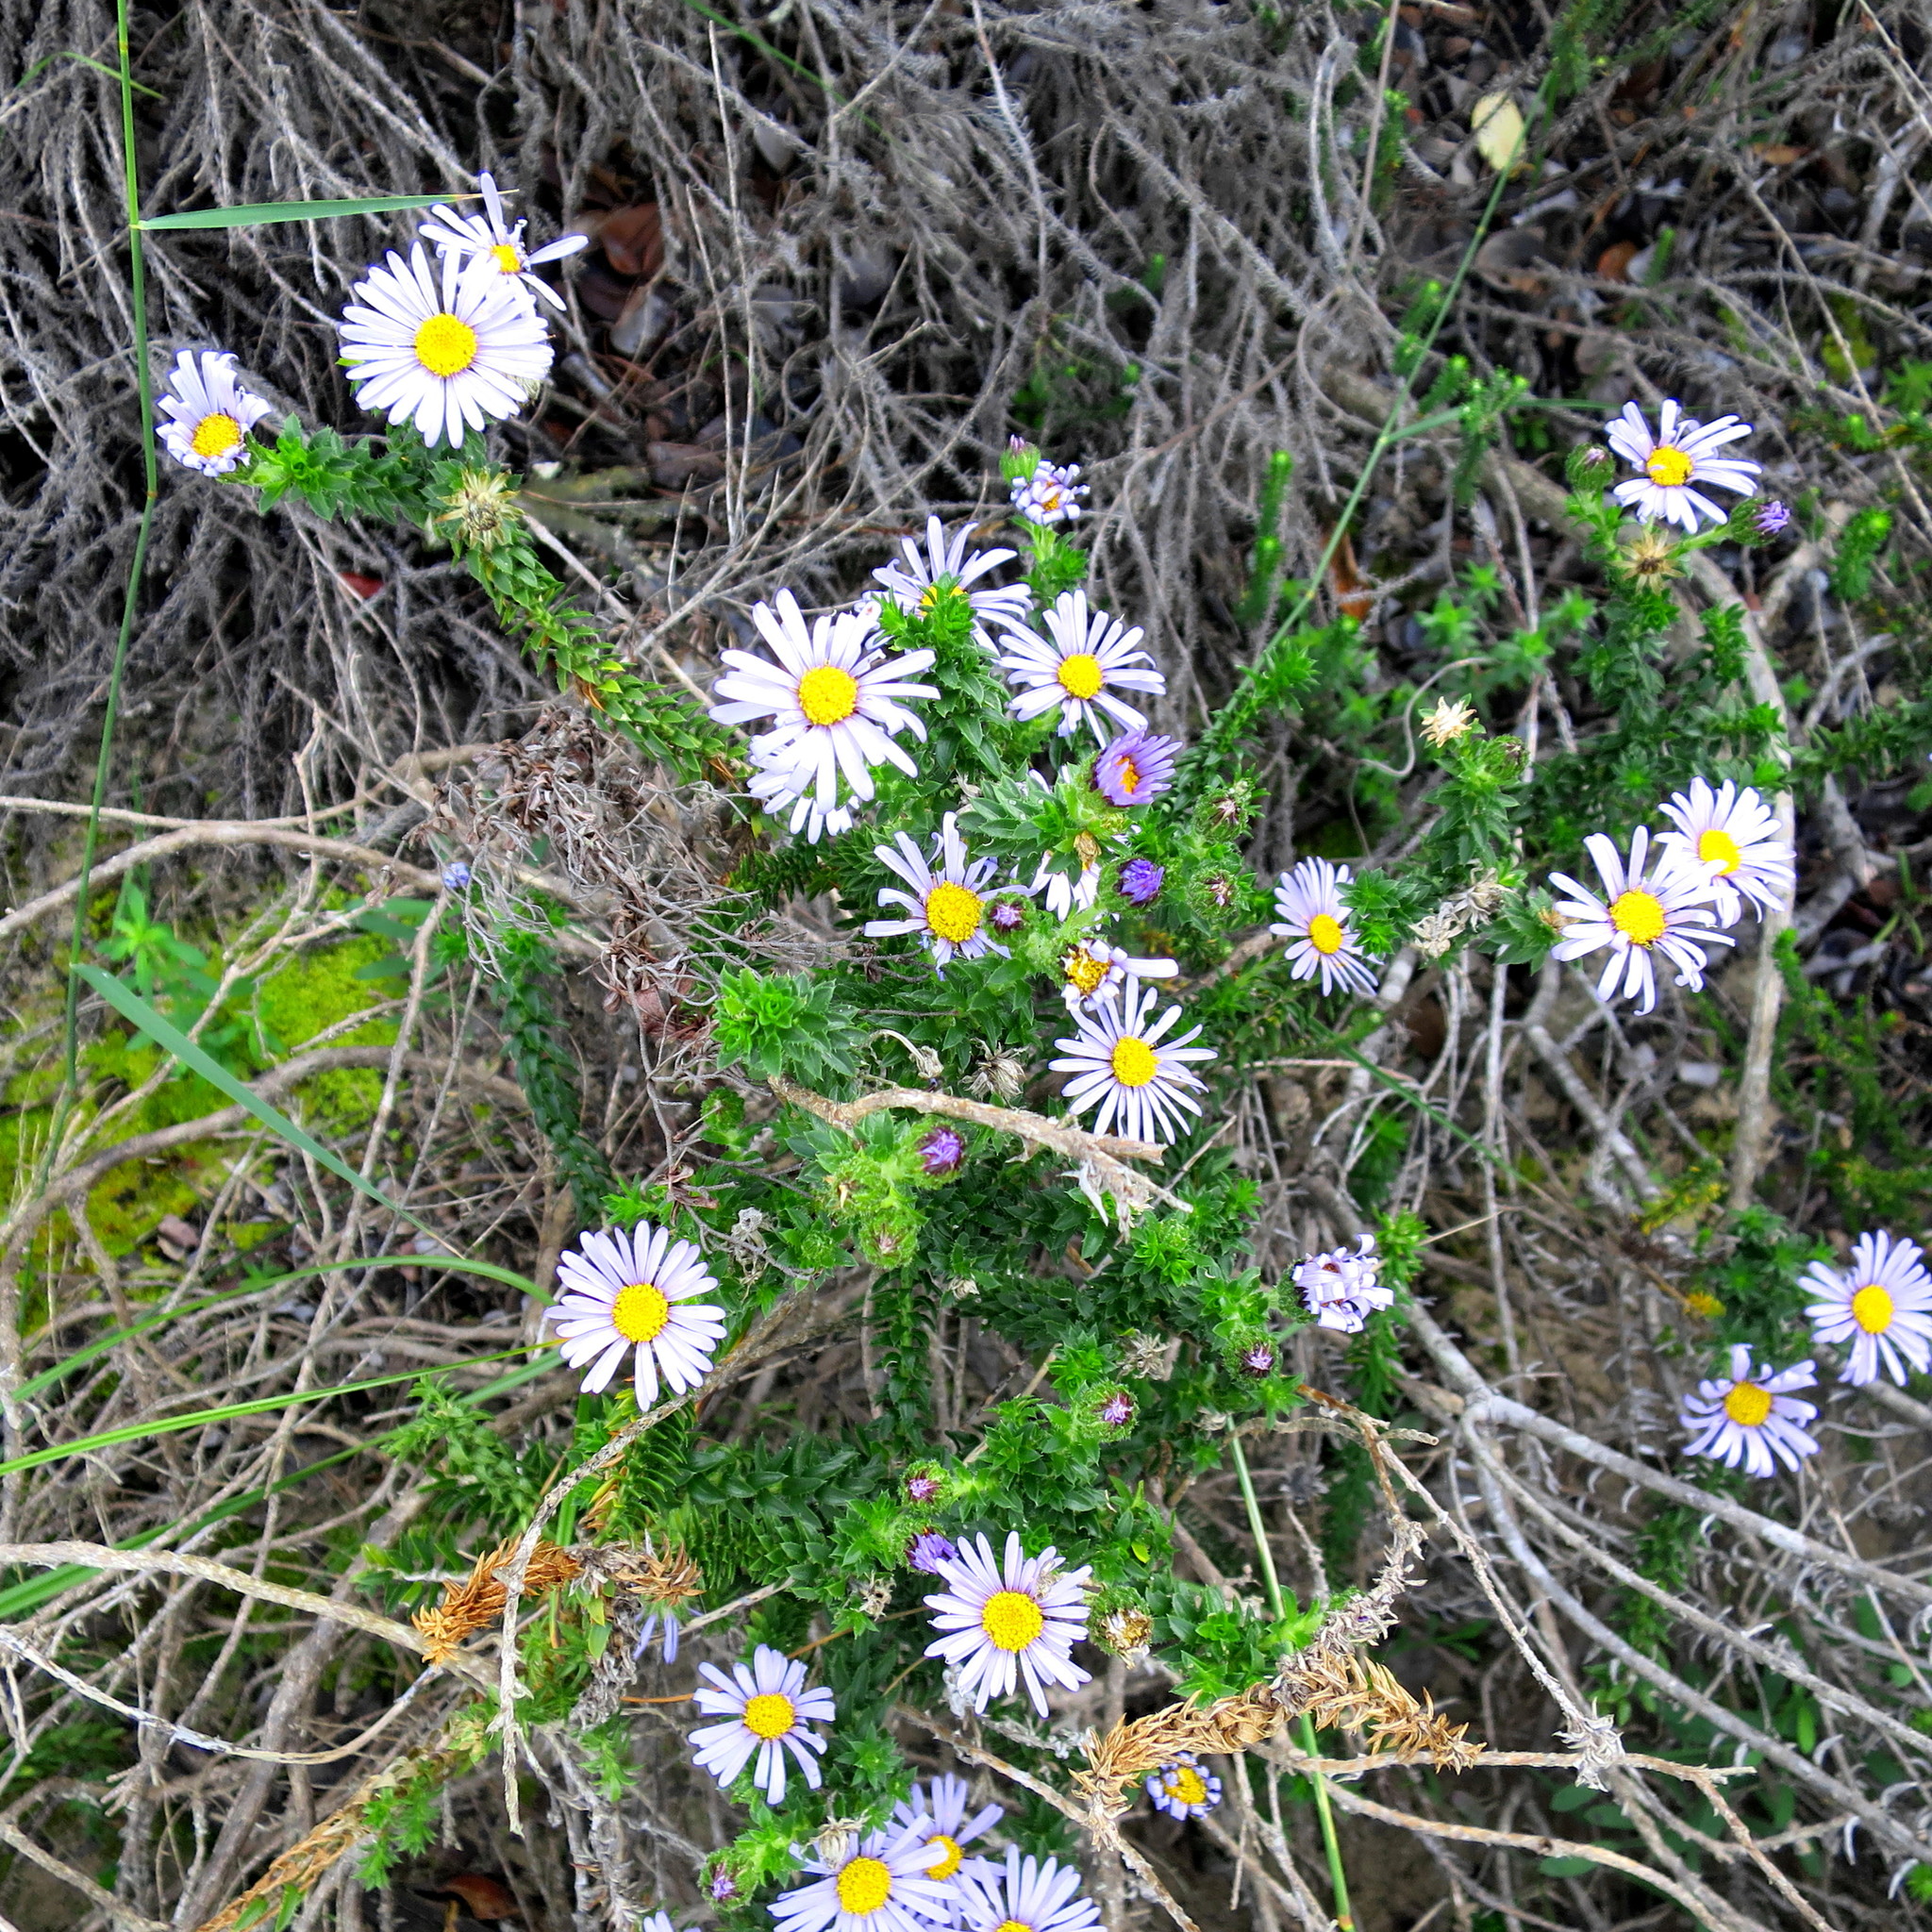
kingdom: Plantae
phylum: Tracheophyta
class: Magnoliopsida
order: Asterales
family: Asteraceae
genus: Felicia
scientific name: Felicia echinata
